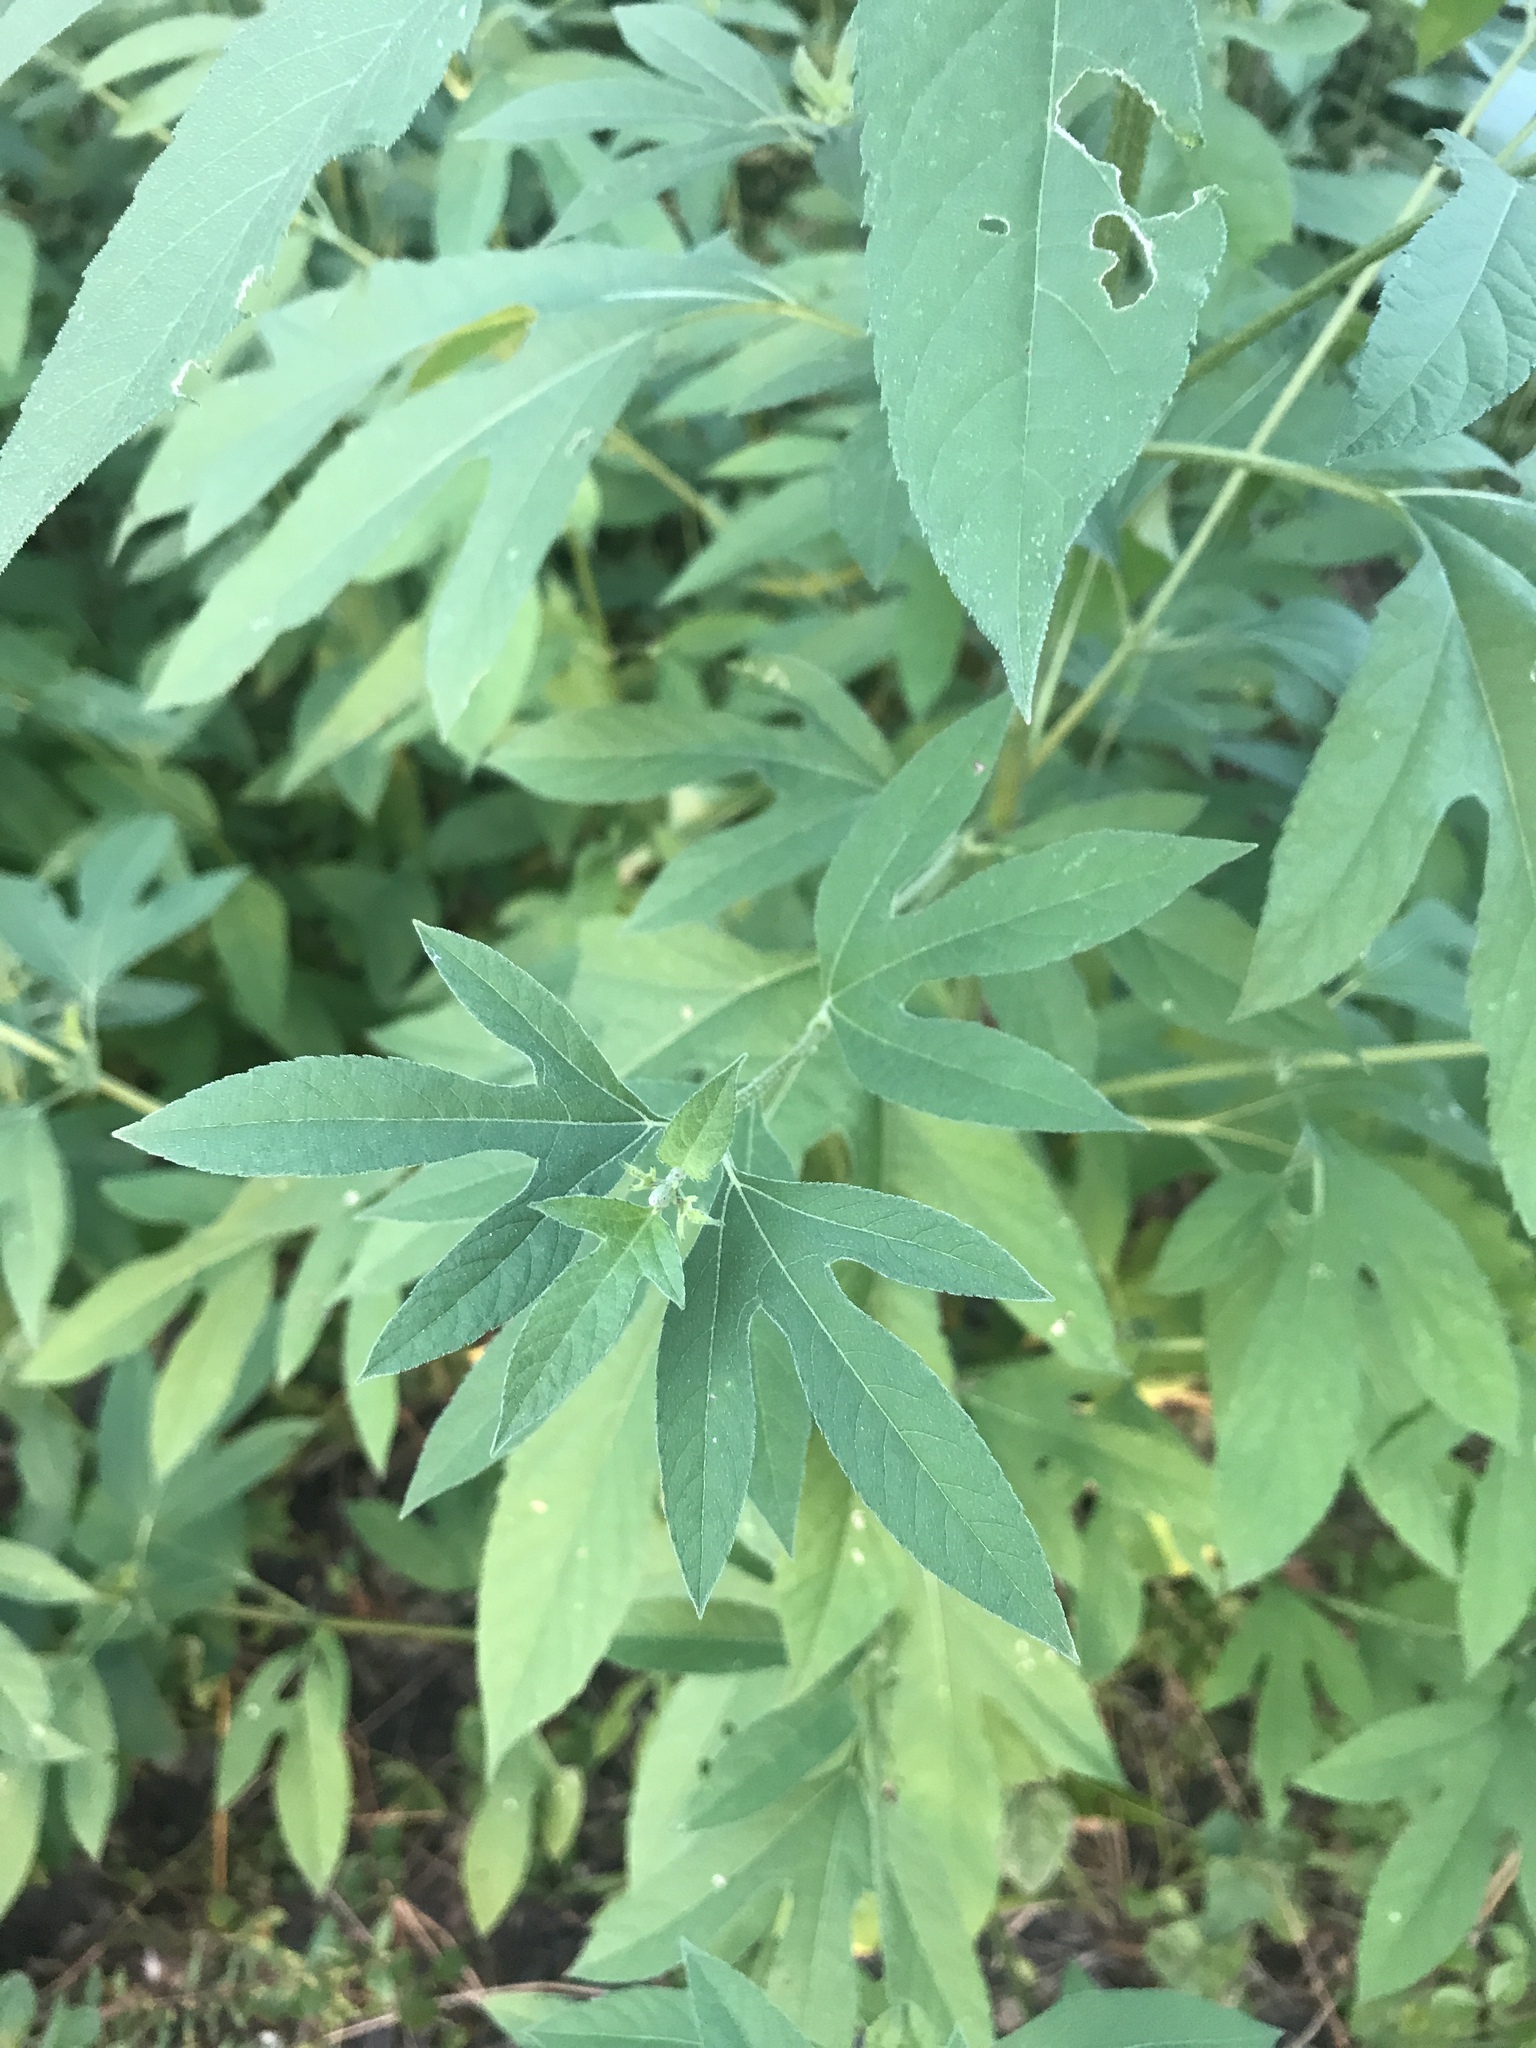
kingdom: Plantae
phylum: Tracheophyta
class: Magnoliopsida
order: Asterales
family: Asteraceae
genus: Ambrosia
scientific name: Ambrosia trifida
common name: Giant ragweed
